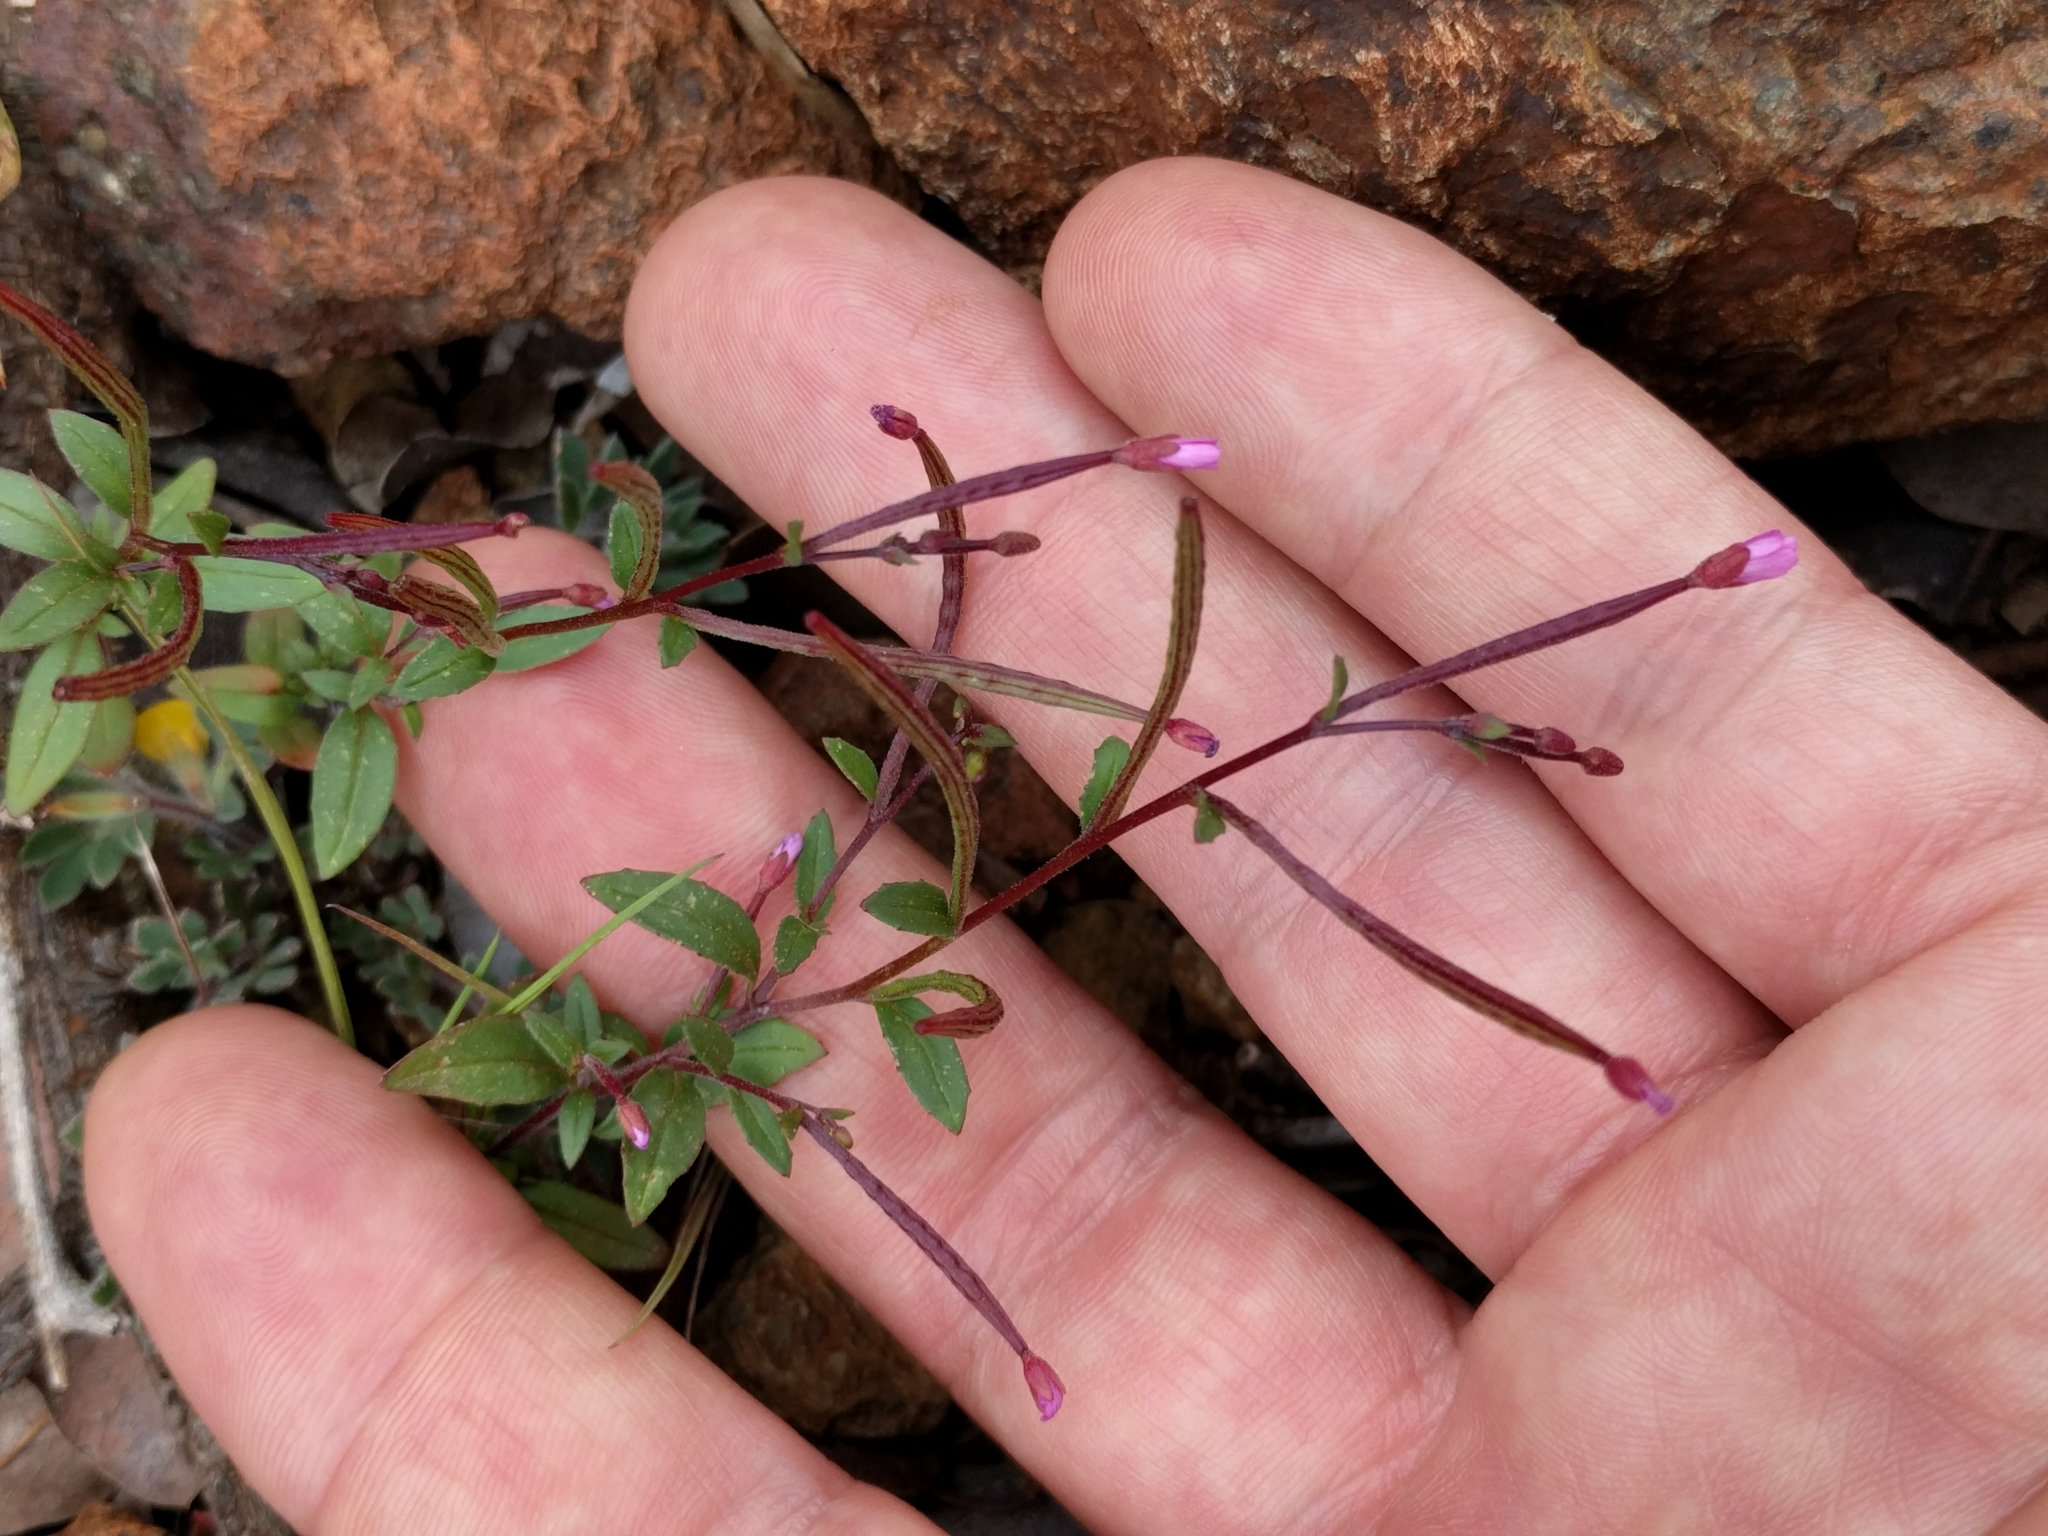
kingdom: Plantae
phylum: Tracheophyta
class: Magnoliopsida
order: Myrtales
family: Onagraceae
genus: Epilobium
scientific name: Epilobium minutum
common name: Chaparral willowherb
